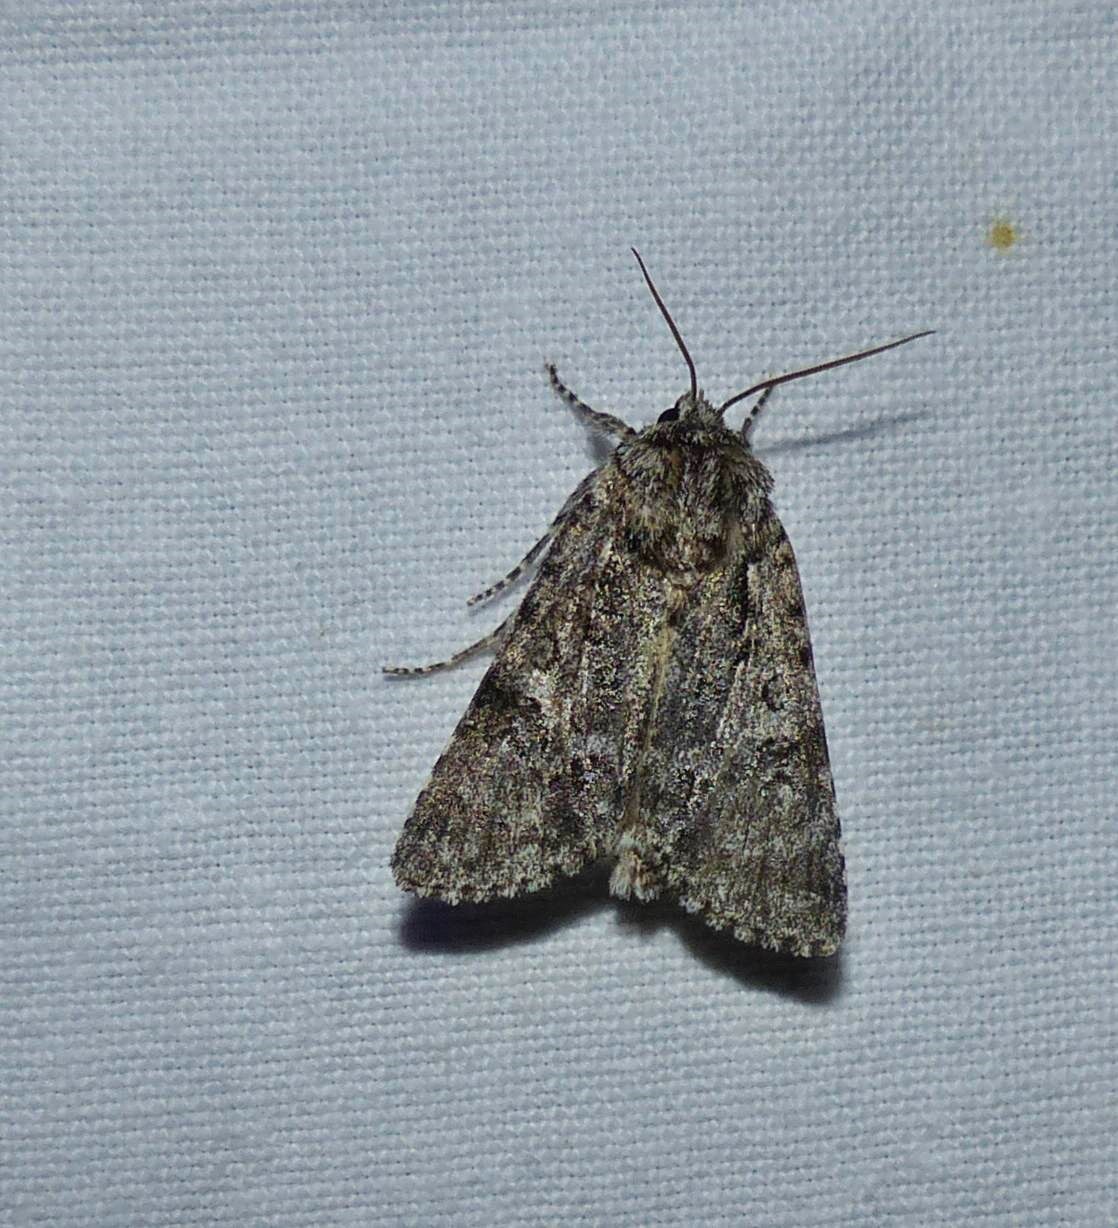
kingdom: Animalia
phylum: Arthropoda
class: Insecta
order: Lepidoptera
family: Noctuidae
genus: Acronicta
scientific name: Acronicta impressa
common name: Impressed dagger
